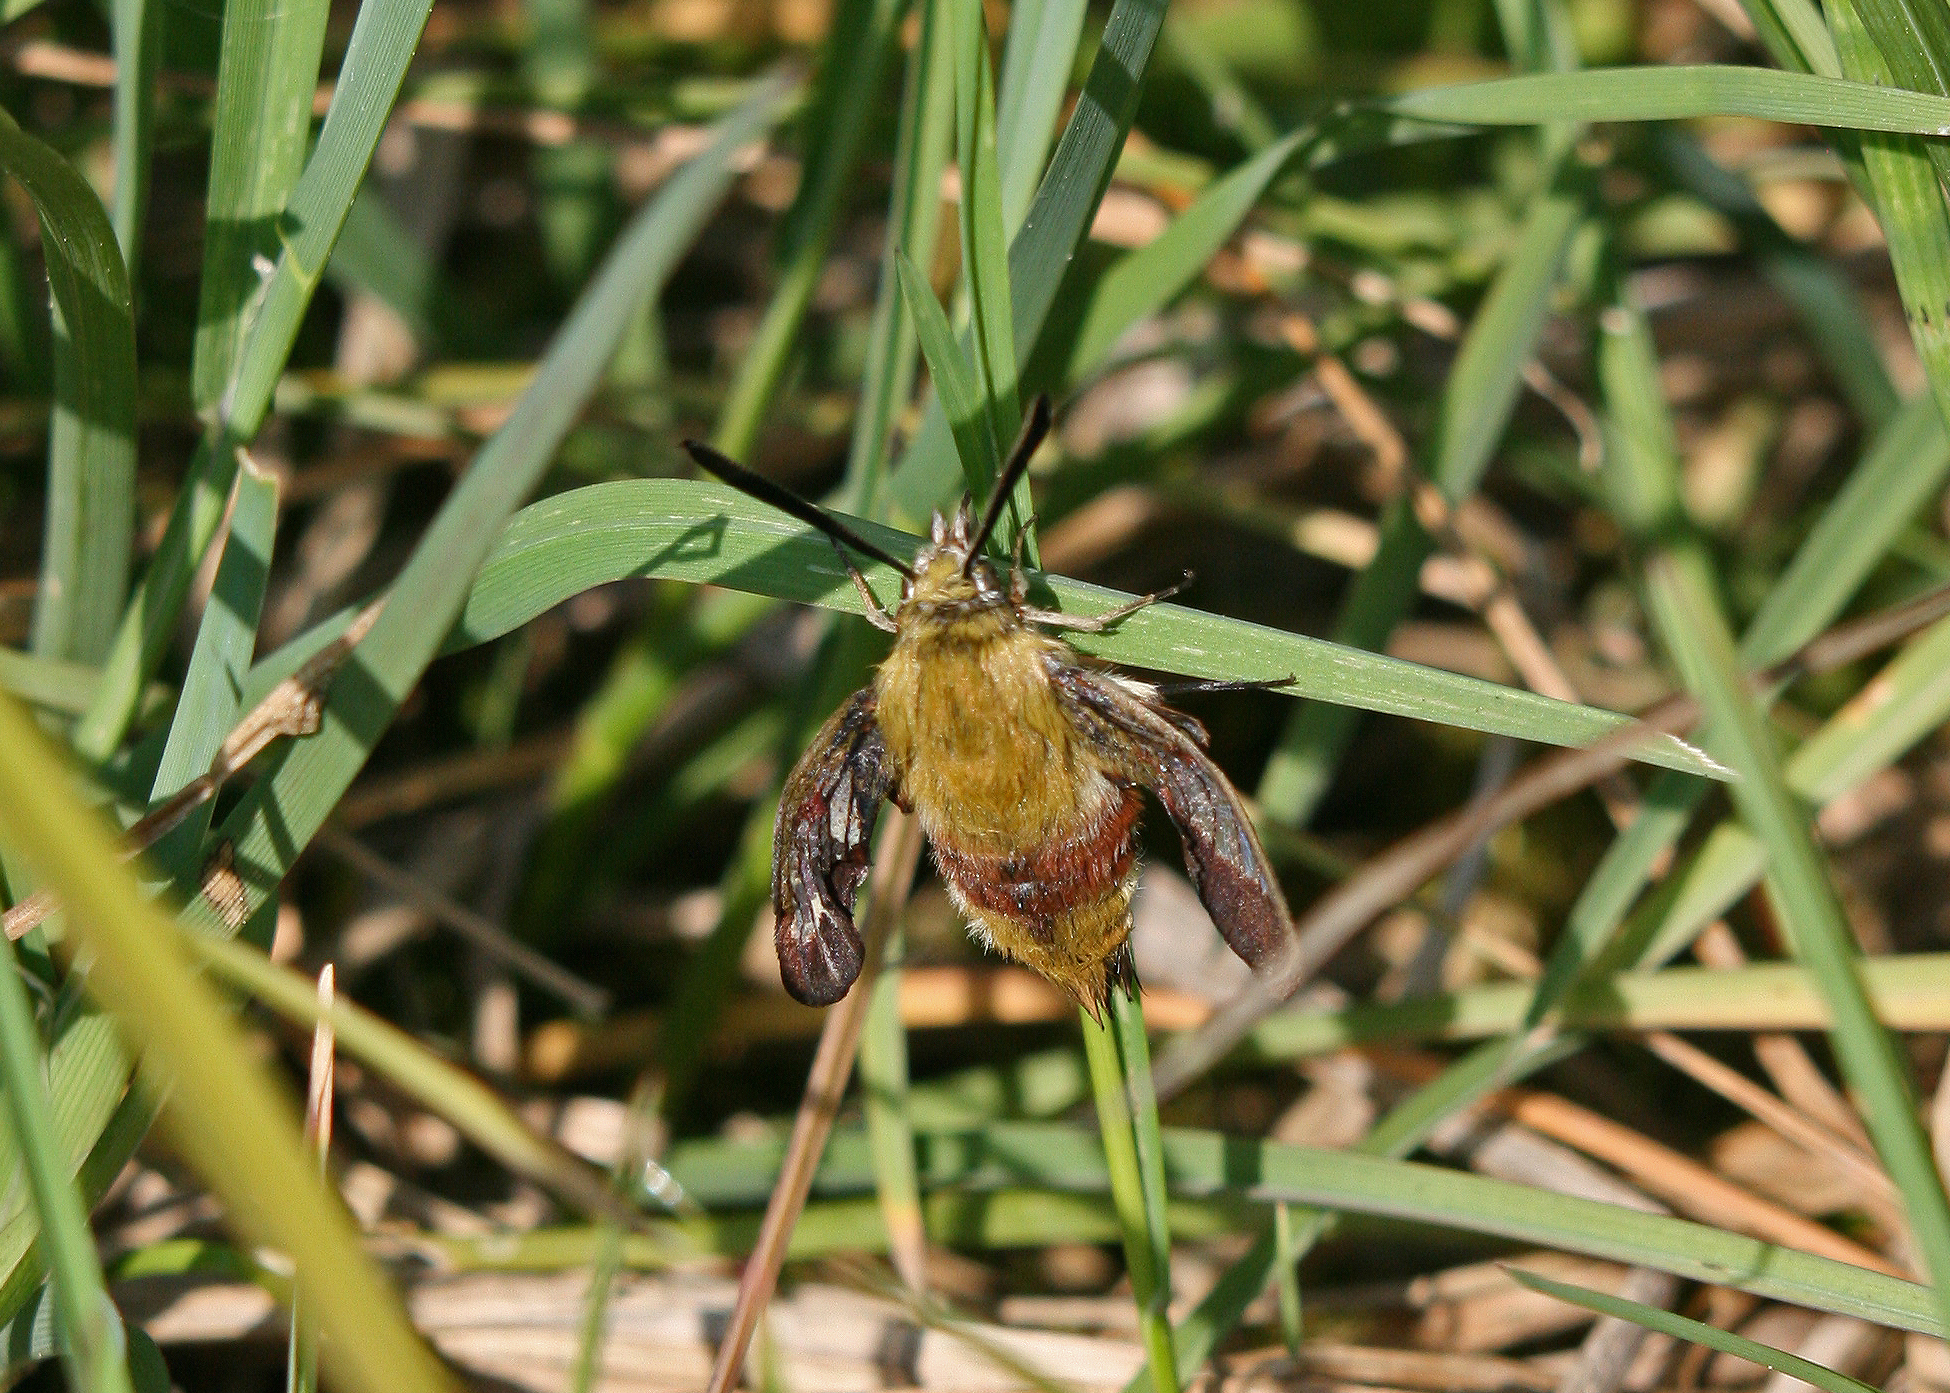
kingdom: Animalia
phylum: Arthropoda
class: Insecta
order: Lepidoptera
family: Sphingidae
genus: Hemaris
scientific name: Hemaris fuciformis
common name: Broad-bordered bee hawk-moth
